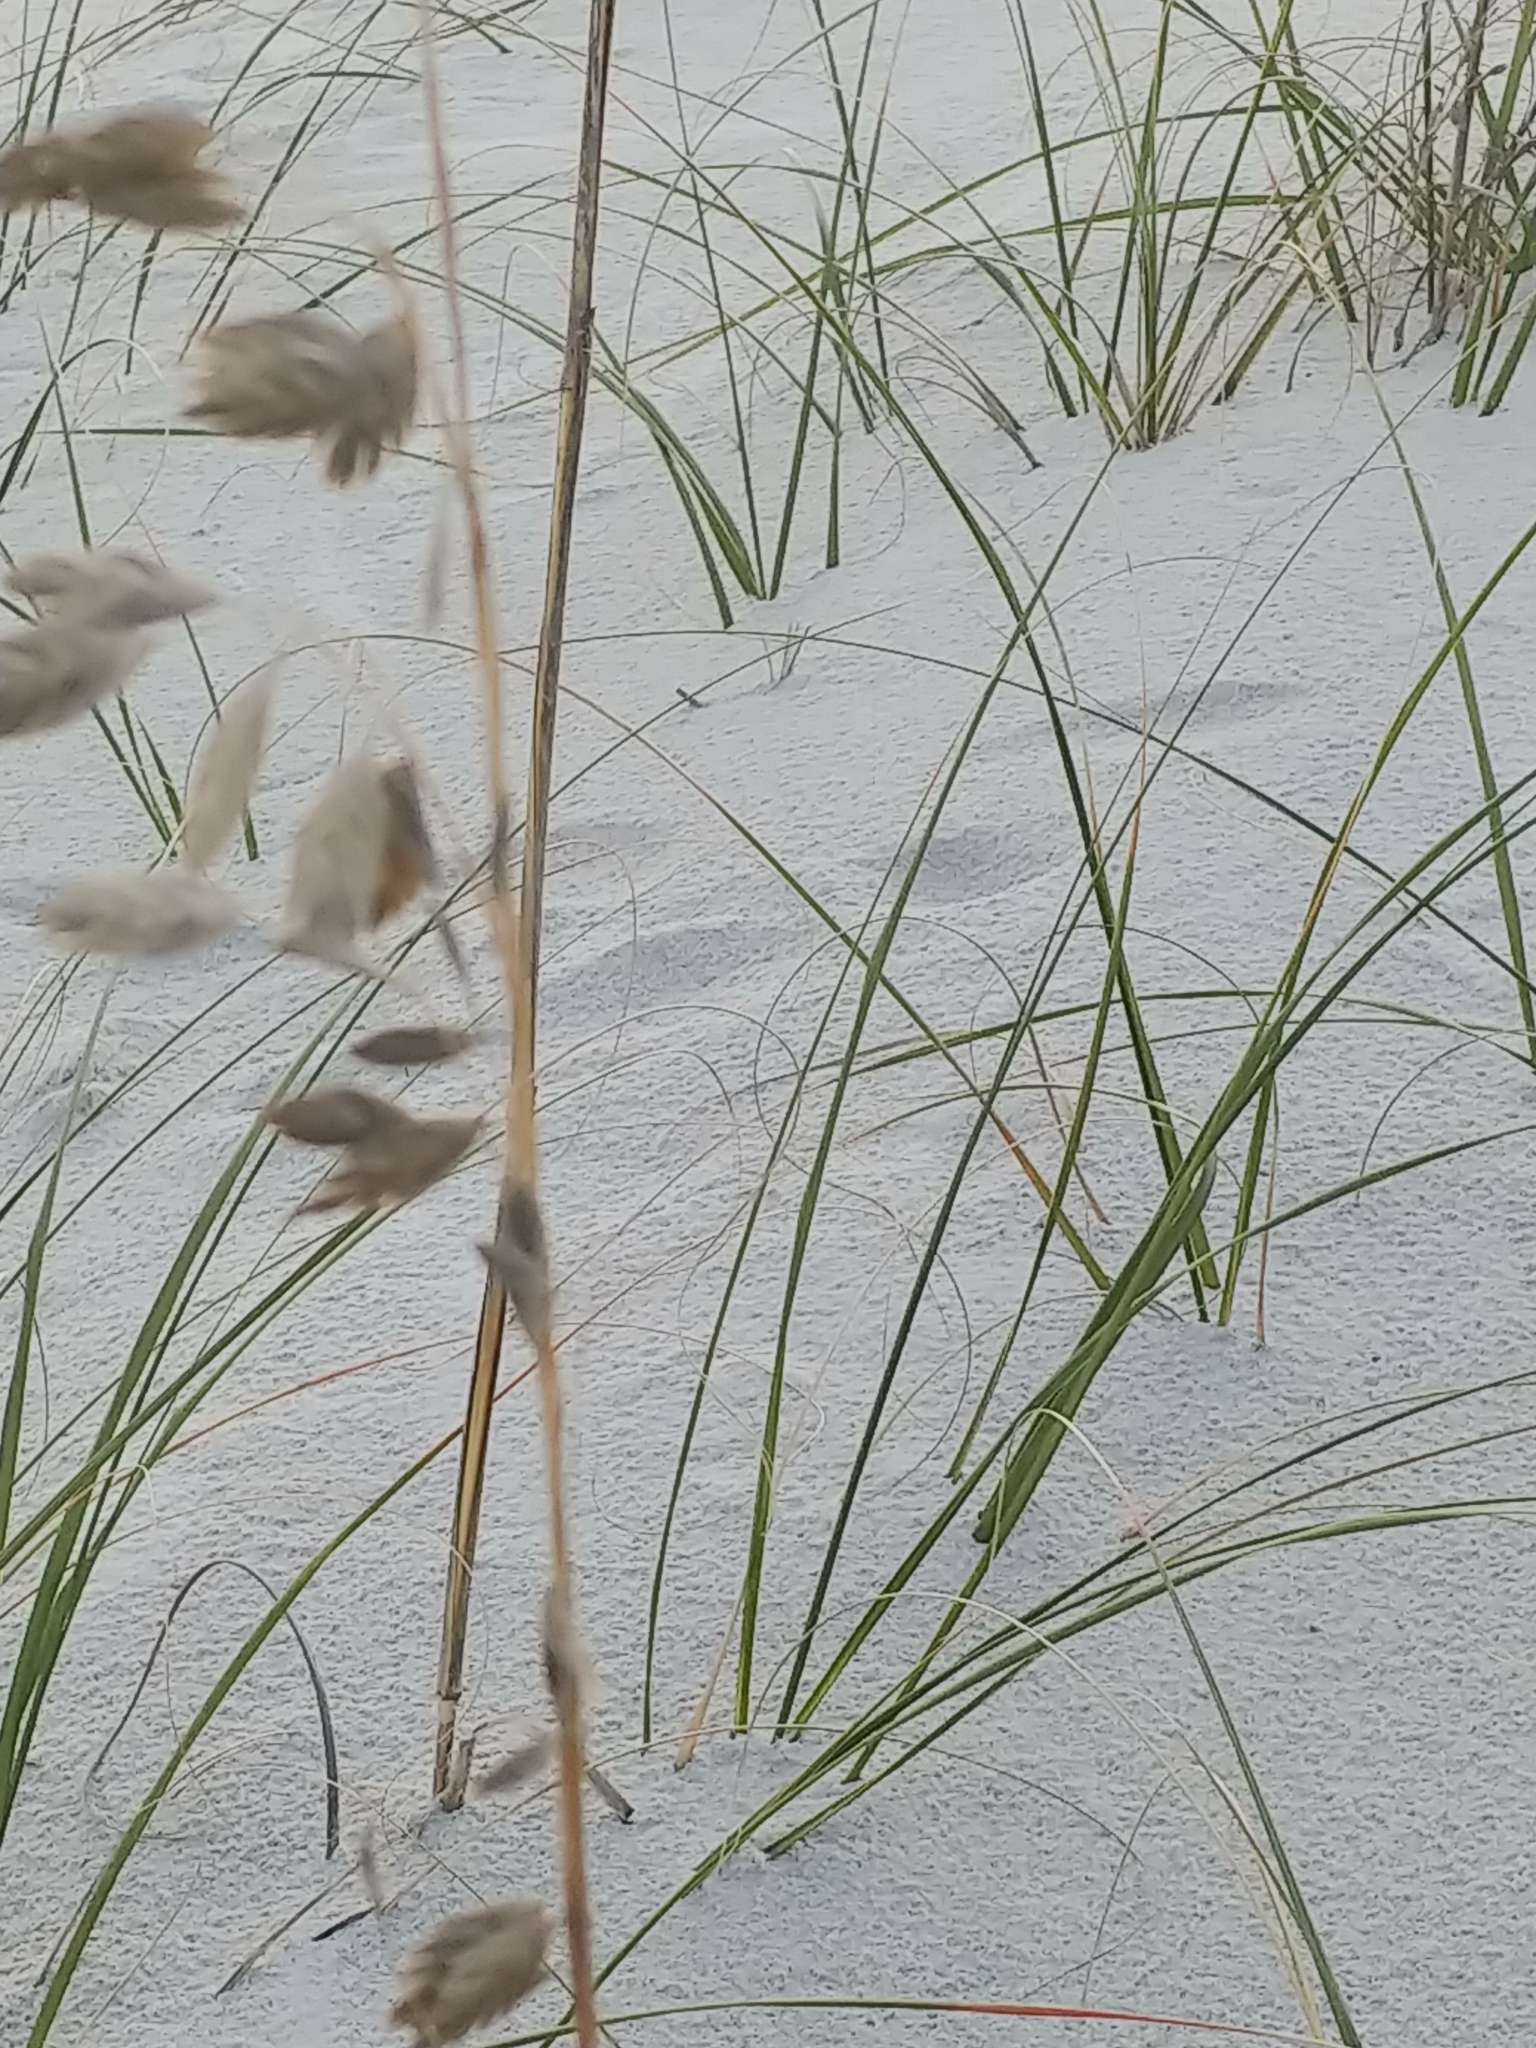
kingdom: Plantae
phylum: Tracheophyta
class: Liliopsida
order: Poales
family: Poaceae
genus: Uniola
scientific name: Uniola paniculata
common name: Seaside-oats
